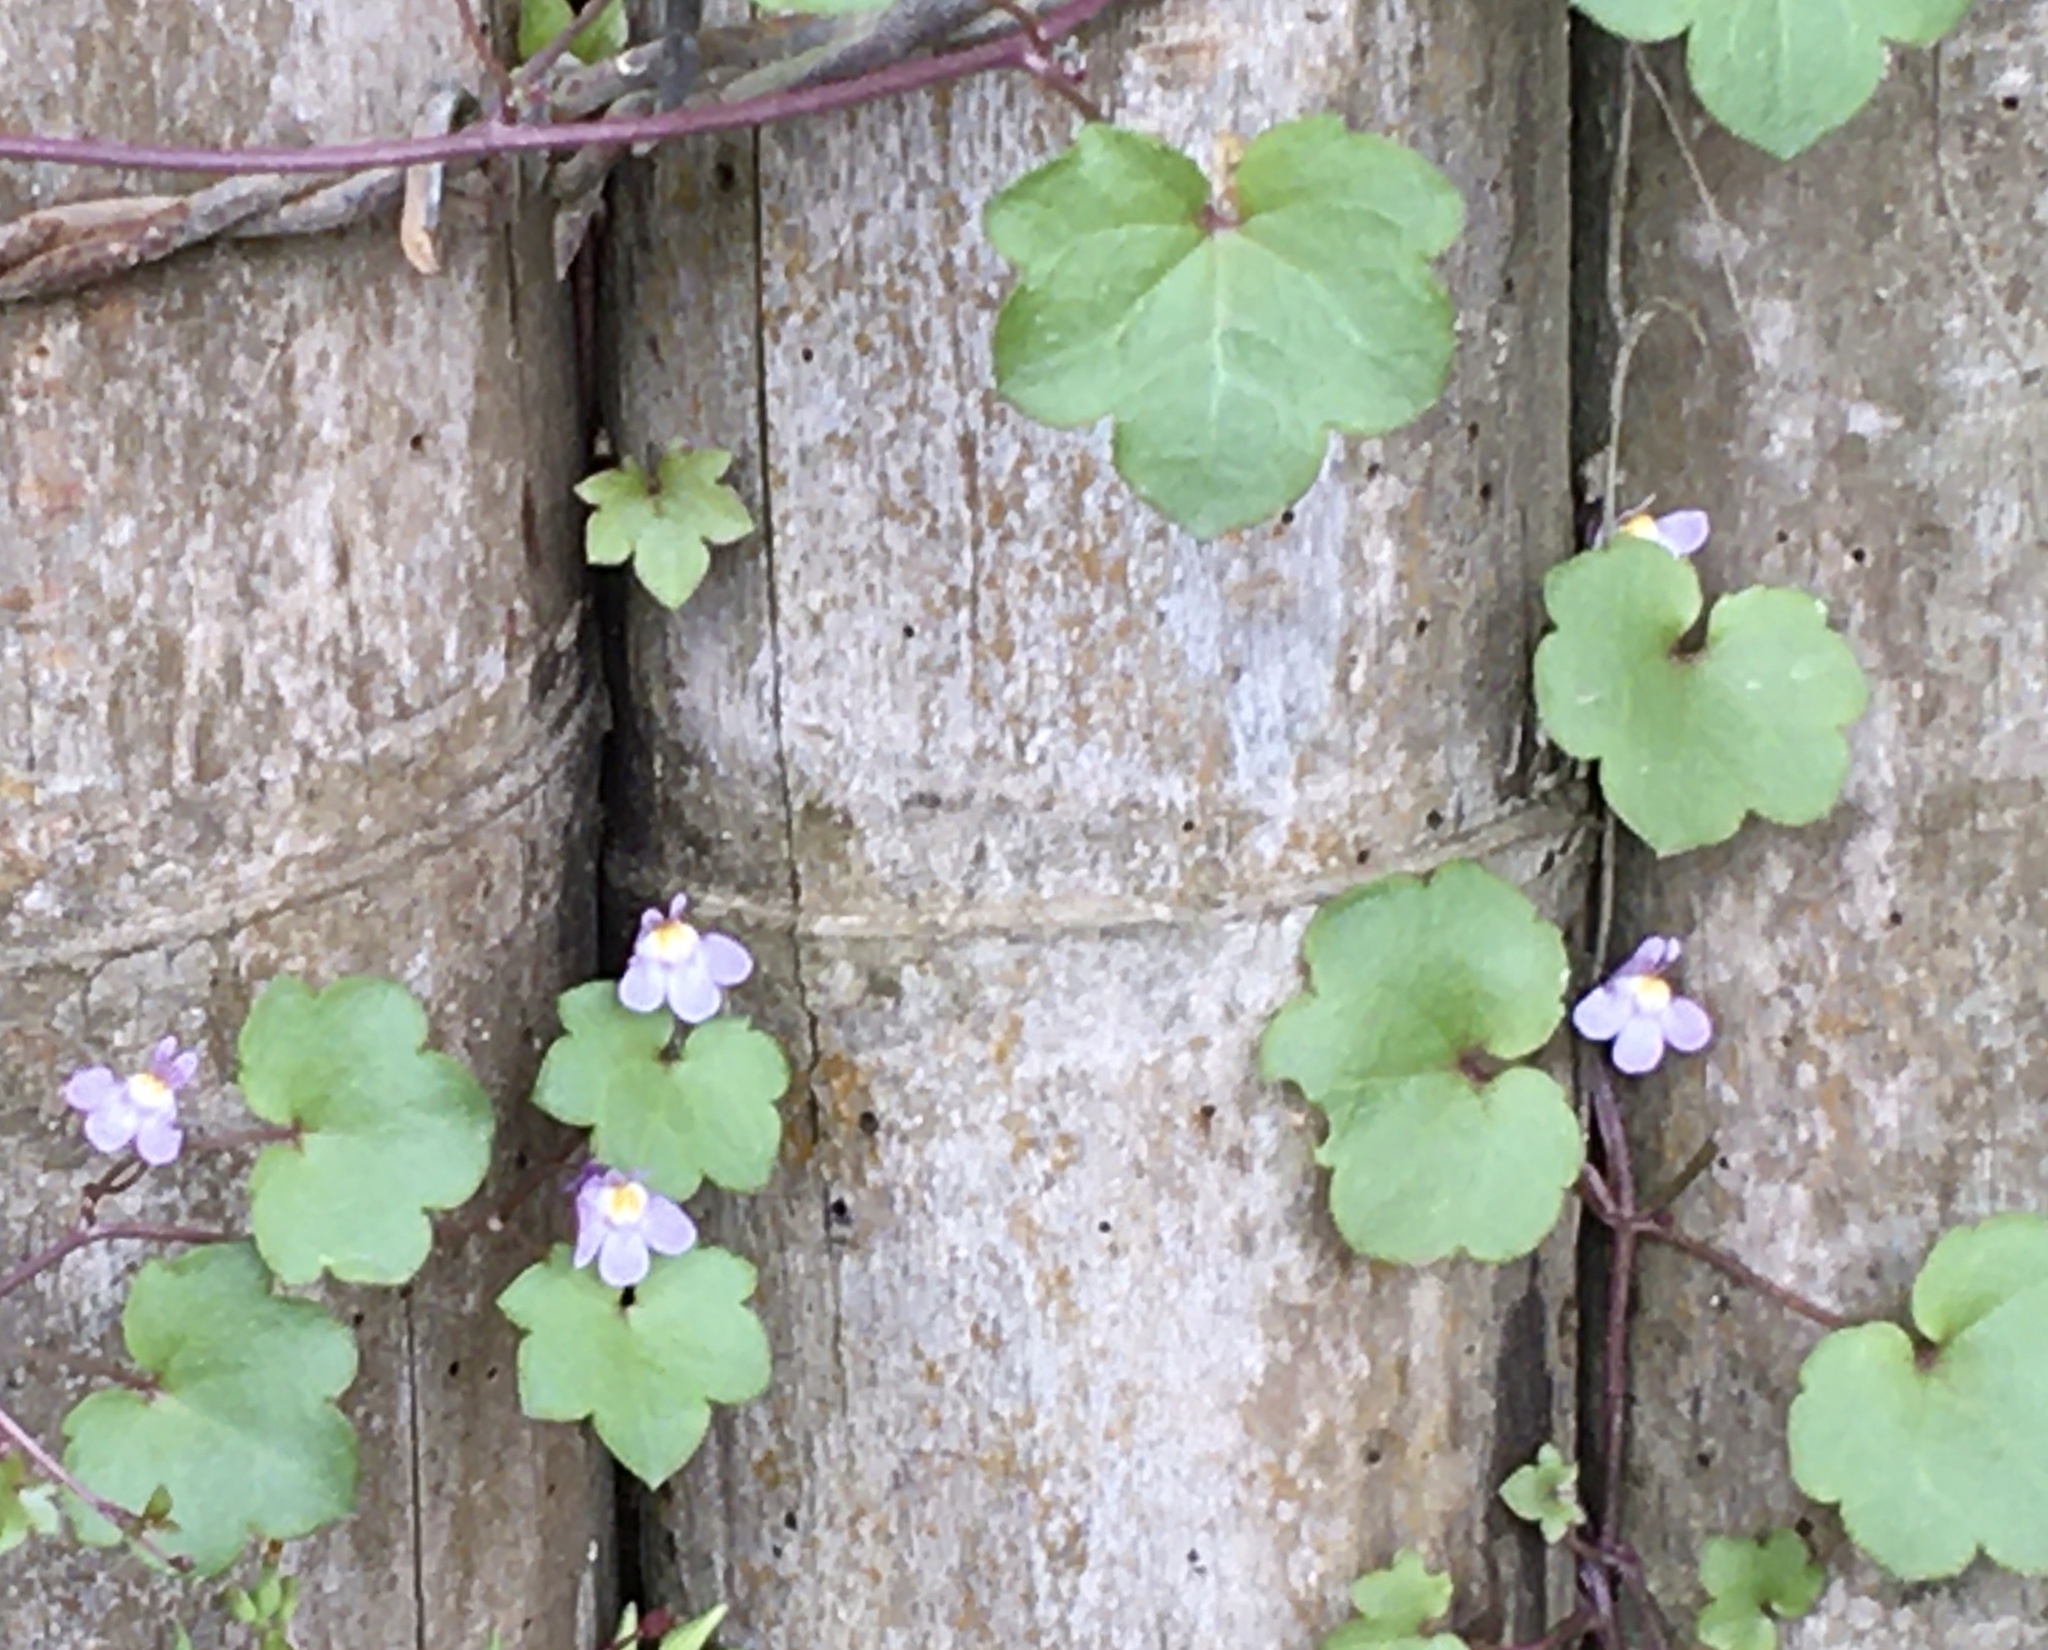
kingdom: Plantae
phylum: Tracheophyta
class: Magnoliopsida
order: Lamiales
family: Plantaginaceae
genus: Cymbalaria
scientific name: Cymbalaria muralis
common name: Ivy-leaved toadflax
